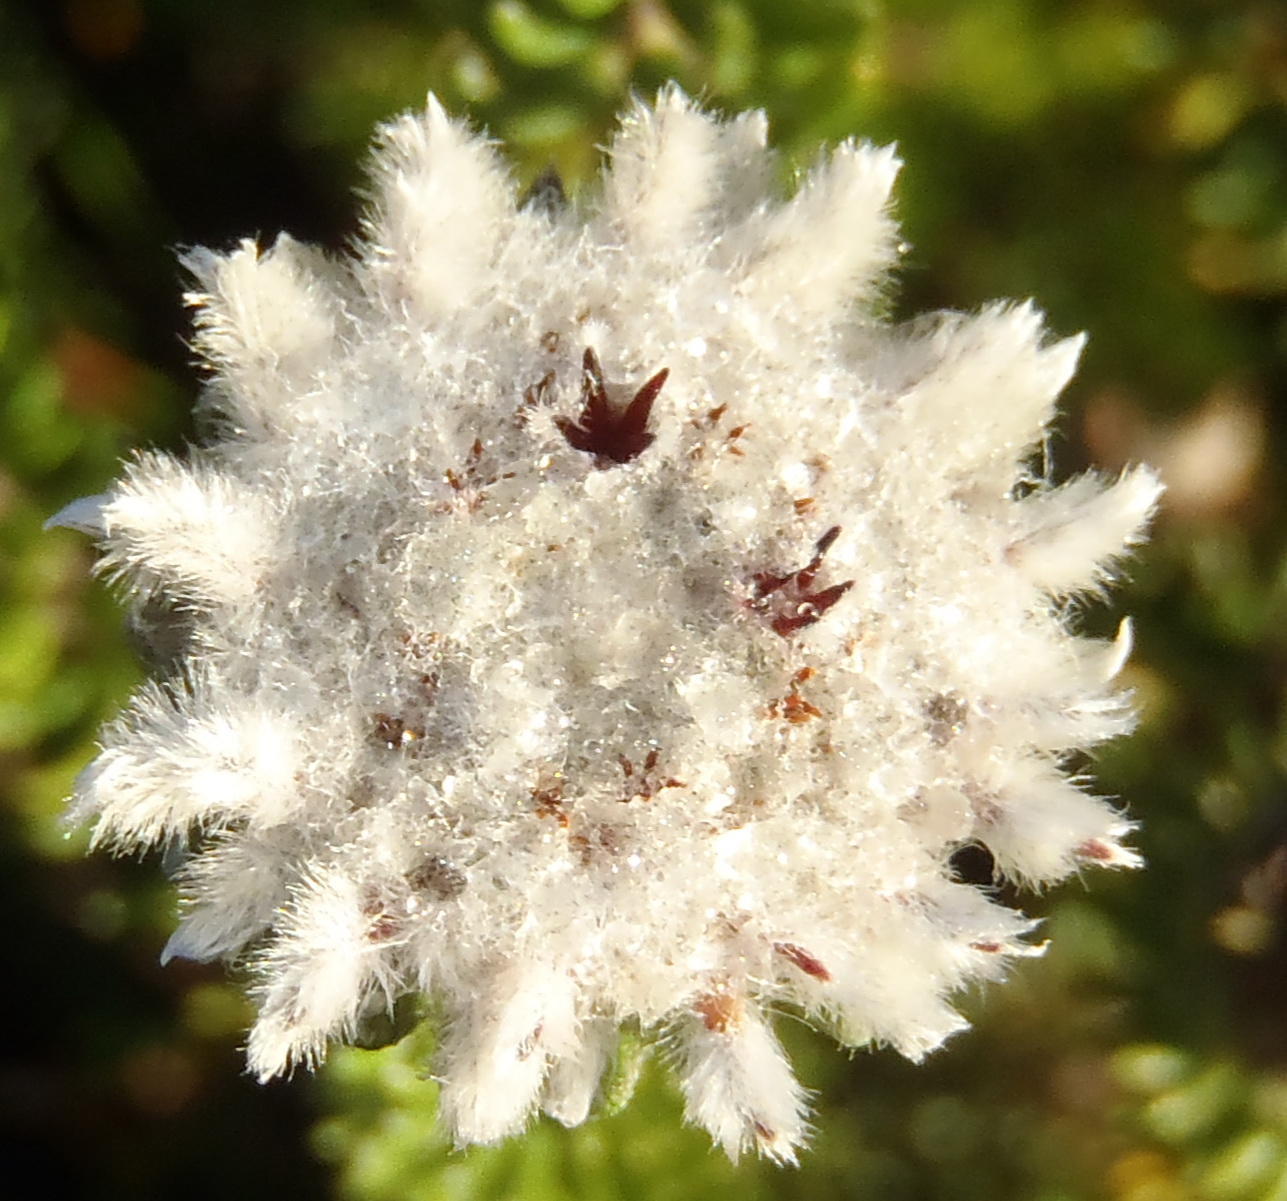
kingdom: Plantae
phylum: Tracheophyta
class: Magnoliopsida
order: Rosales
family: Rhamnaceae
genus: Phylica
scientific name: Phylica curvifolia
